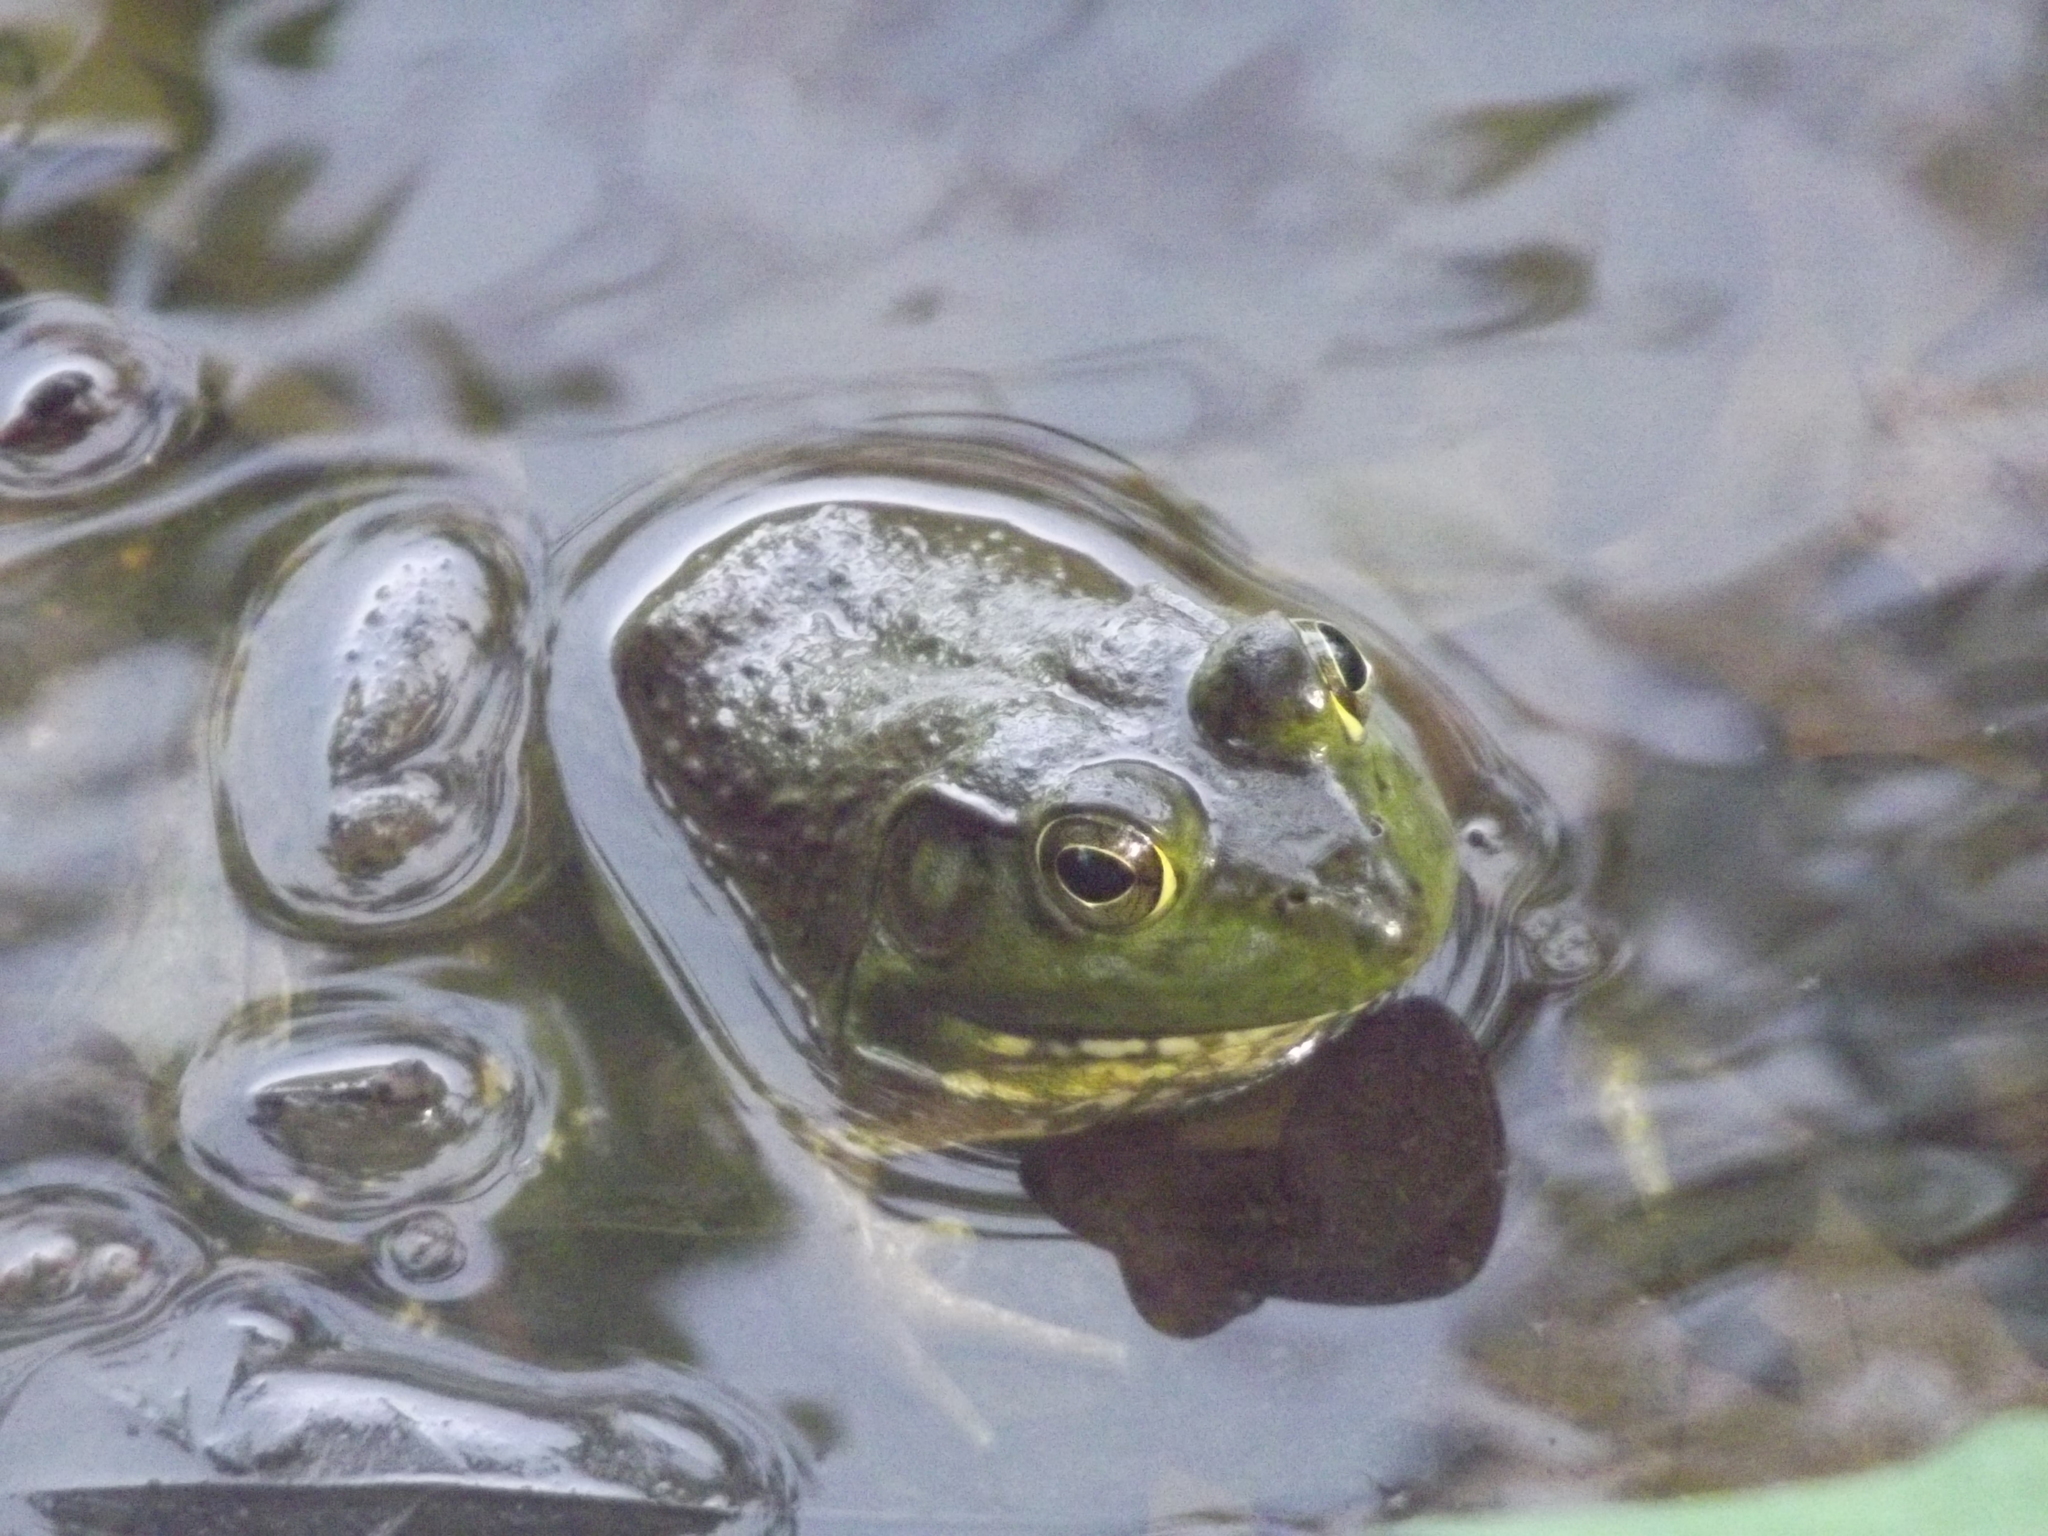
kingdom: Animalia
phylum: Chordata
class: Amphibia
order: Anura
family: Ranidae
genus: Lithobates
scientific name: Lithobates catesbeianus
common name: American bullfrog
